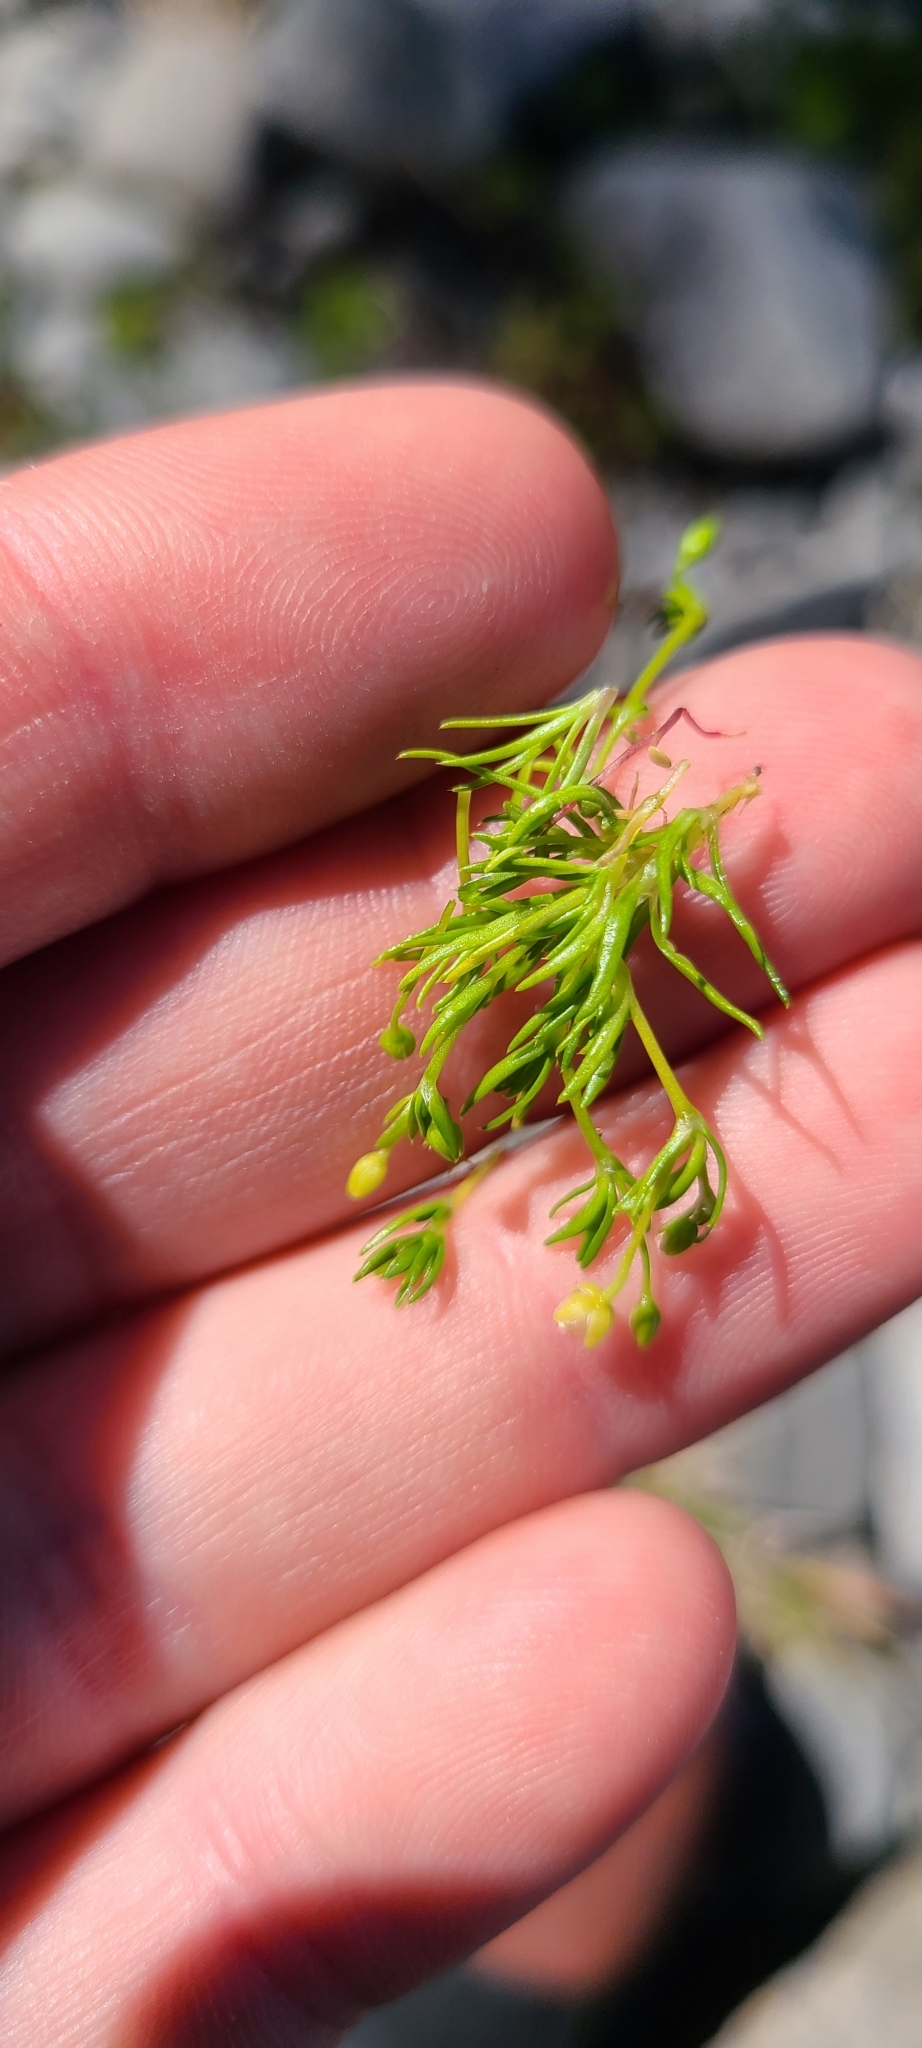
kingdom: Plantae
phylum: Tracheophyta
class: Magnoliopsida
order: Caryophyllales
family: Caryophyllaceae
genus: Sagina
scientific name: Sagina procumbens
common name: Procumbent pearlwort
